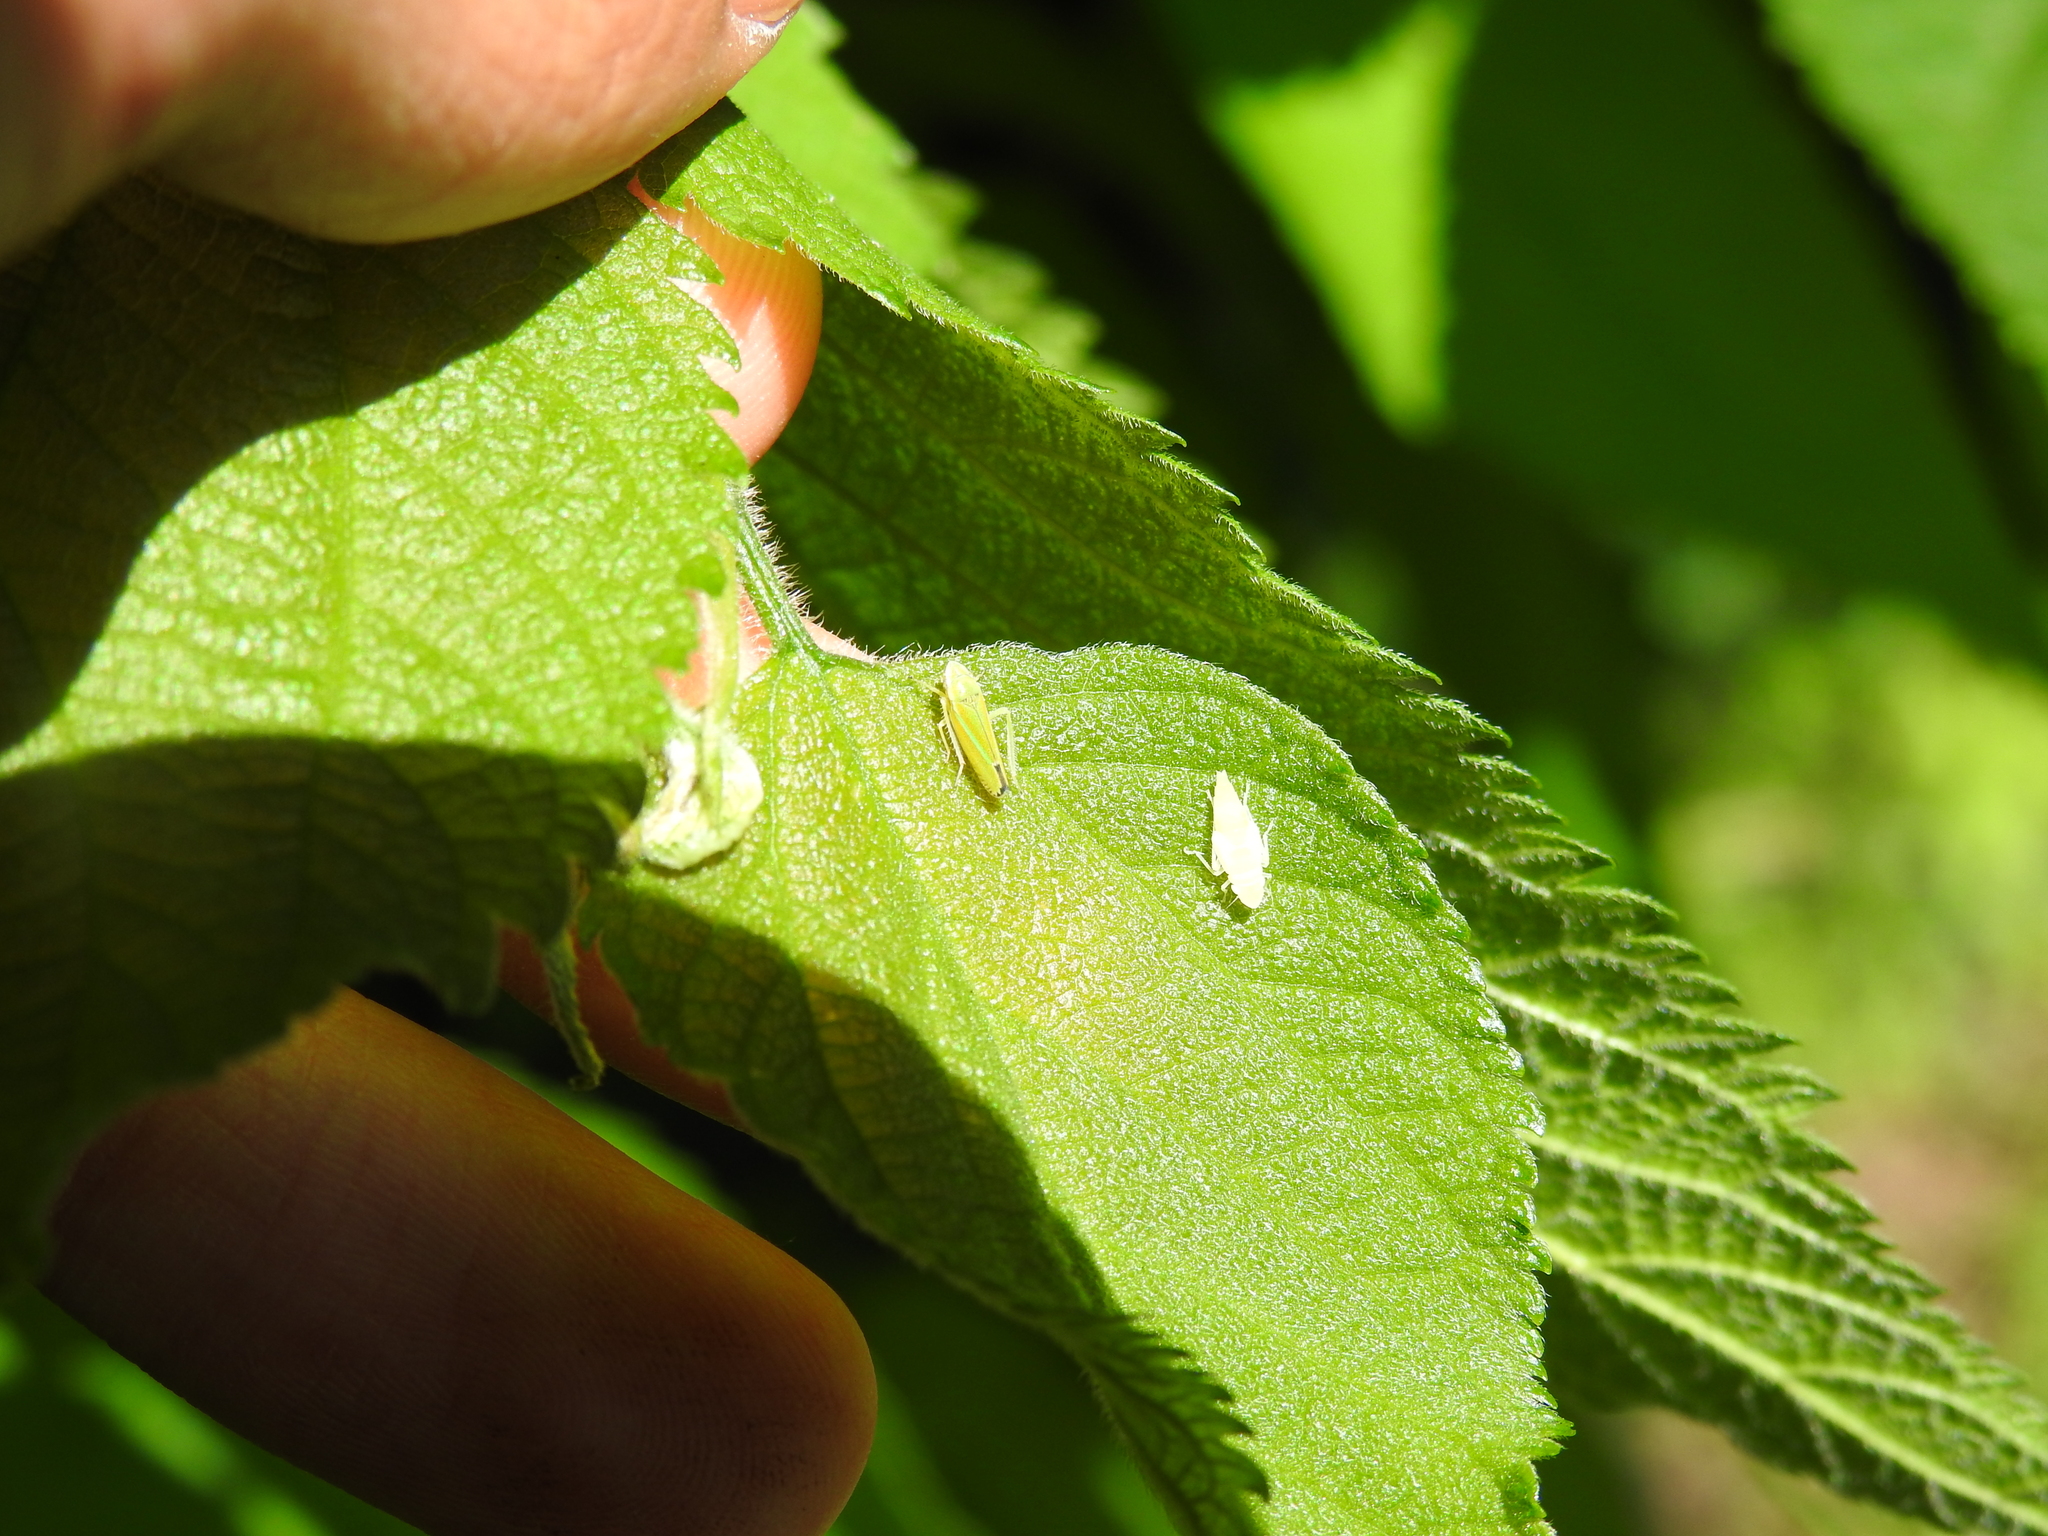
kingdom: Animalia
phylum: Arthropoda
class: Insecta
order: Hemiptera
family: Cicadellidae
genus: Graphocephala
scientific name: Graphocephala versuta
